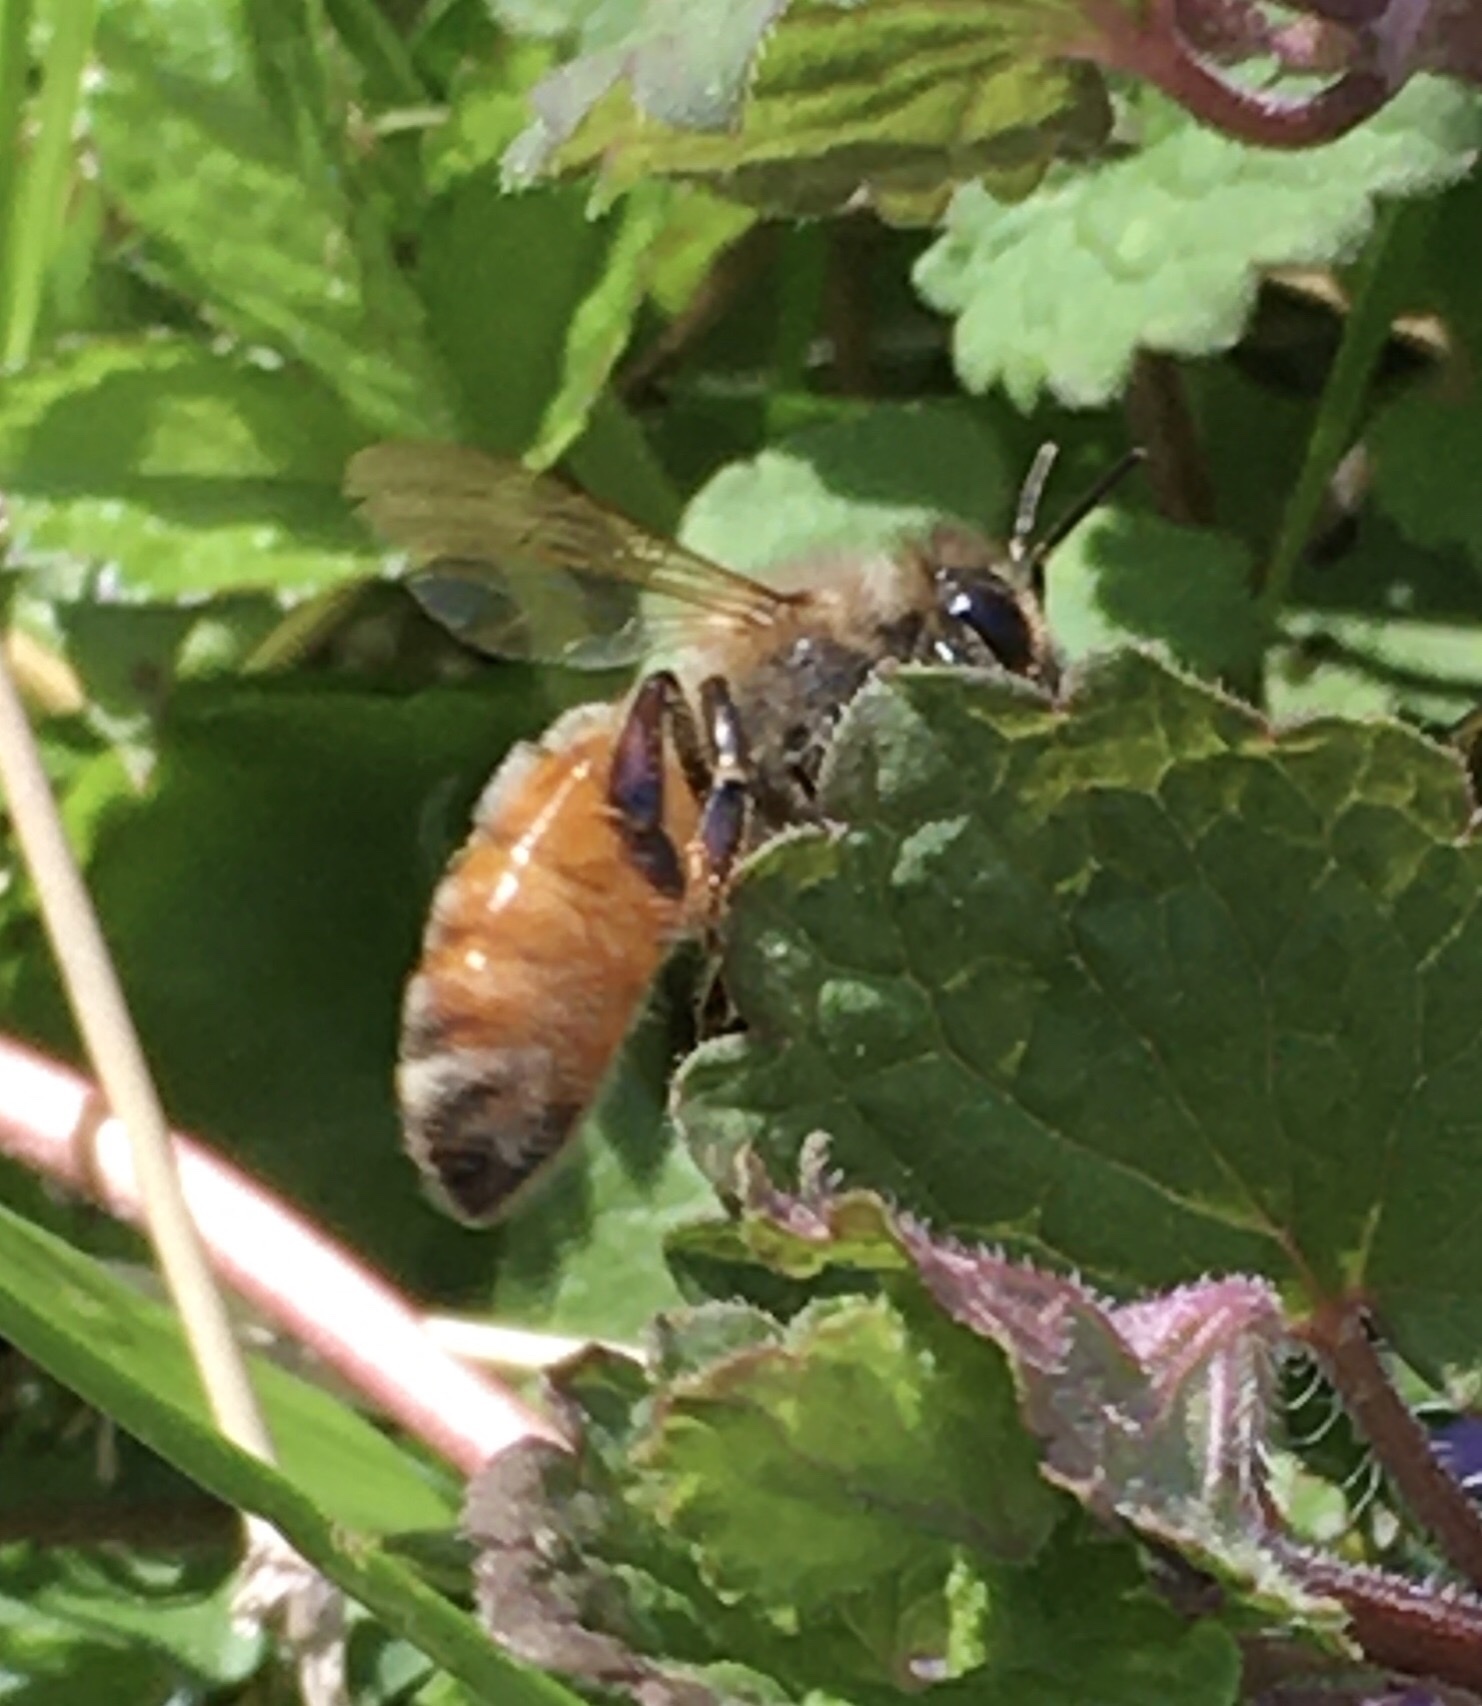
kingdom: Animalia
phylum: Arthropoda
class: Insecta
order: Hymenoptera
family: Apidae
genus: Apis
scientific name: Apis mellifera
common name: Honey bee
